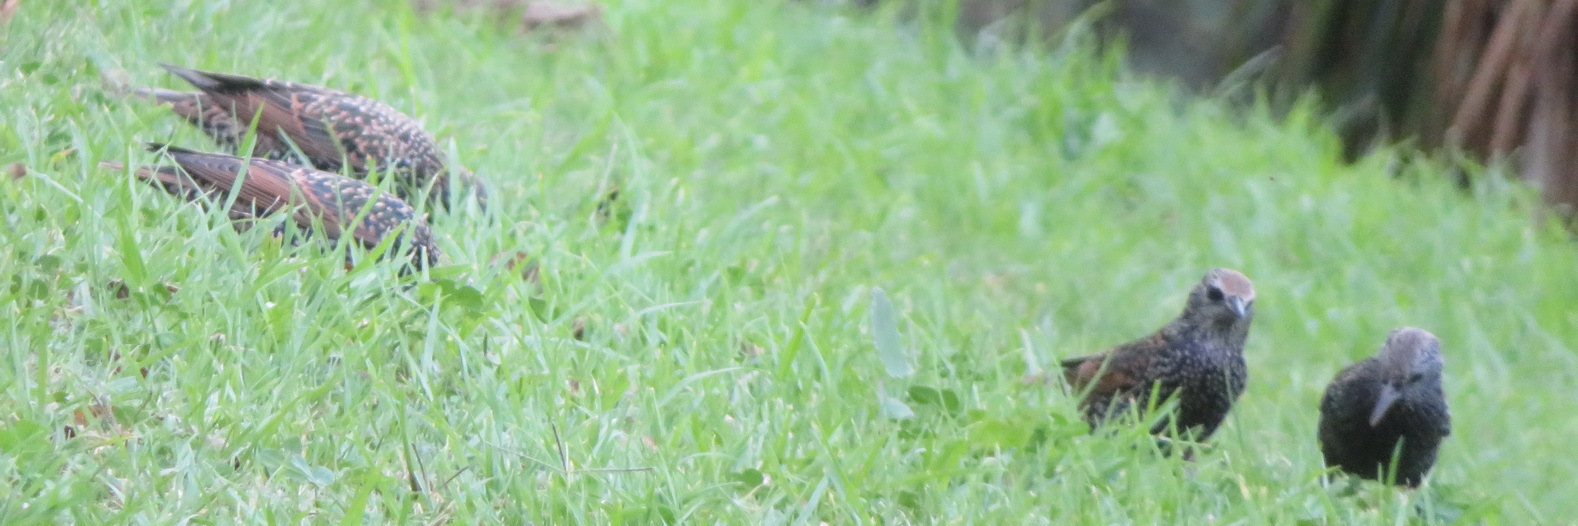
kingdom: Animalia
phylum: Chordata
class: Aves
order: Passeriformes
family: Sturnidae
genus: Sturnus
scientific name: Sturnus vulgaris
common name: Common starling
